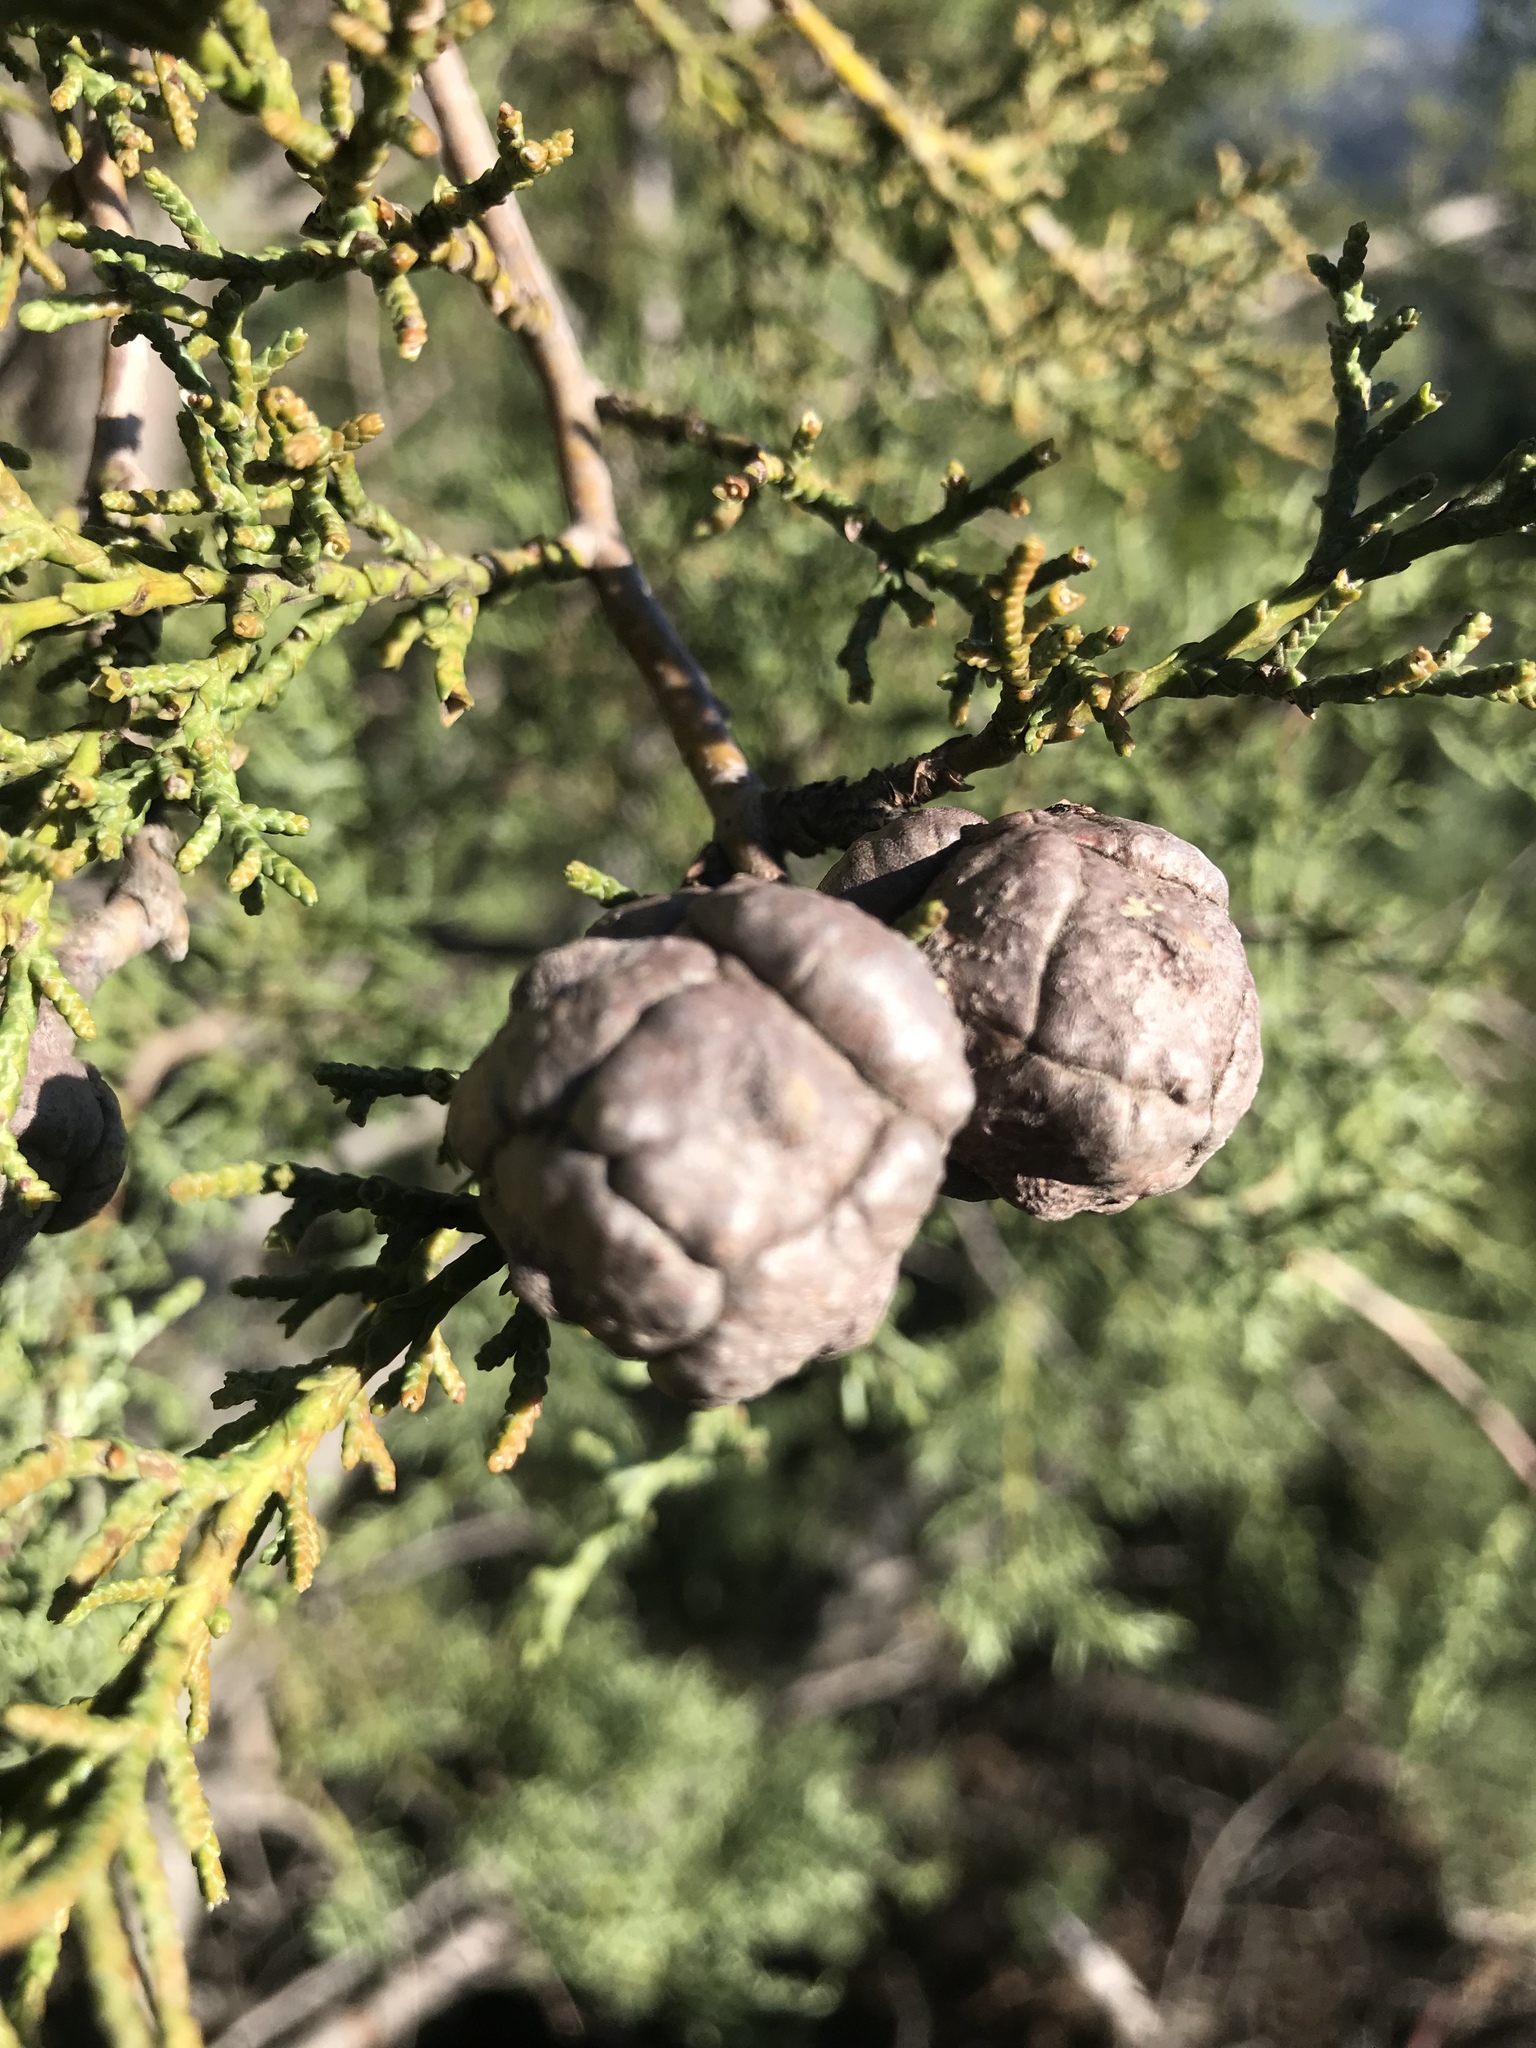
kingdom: Plantae
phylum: Tracheophyta
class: Pinopsida
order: Pinales
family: Cupressaceae
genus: Cupressus
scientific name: Cupressus sargentii
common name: Sargent cypress
